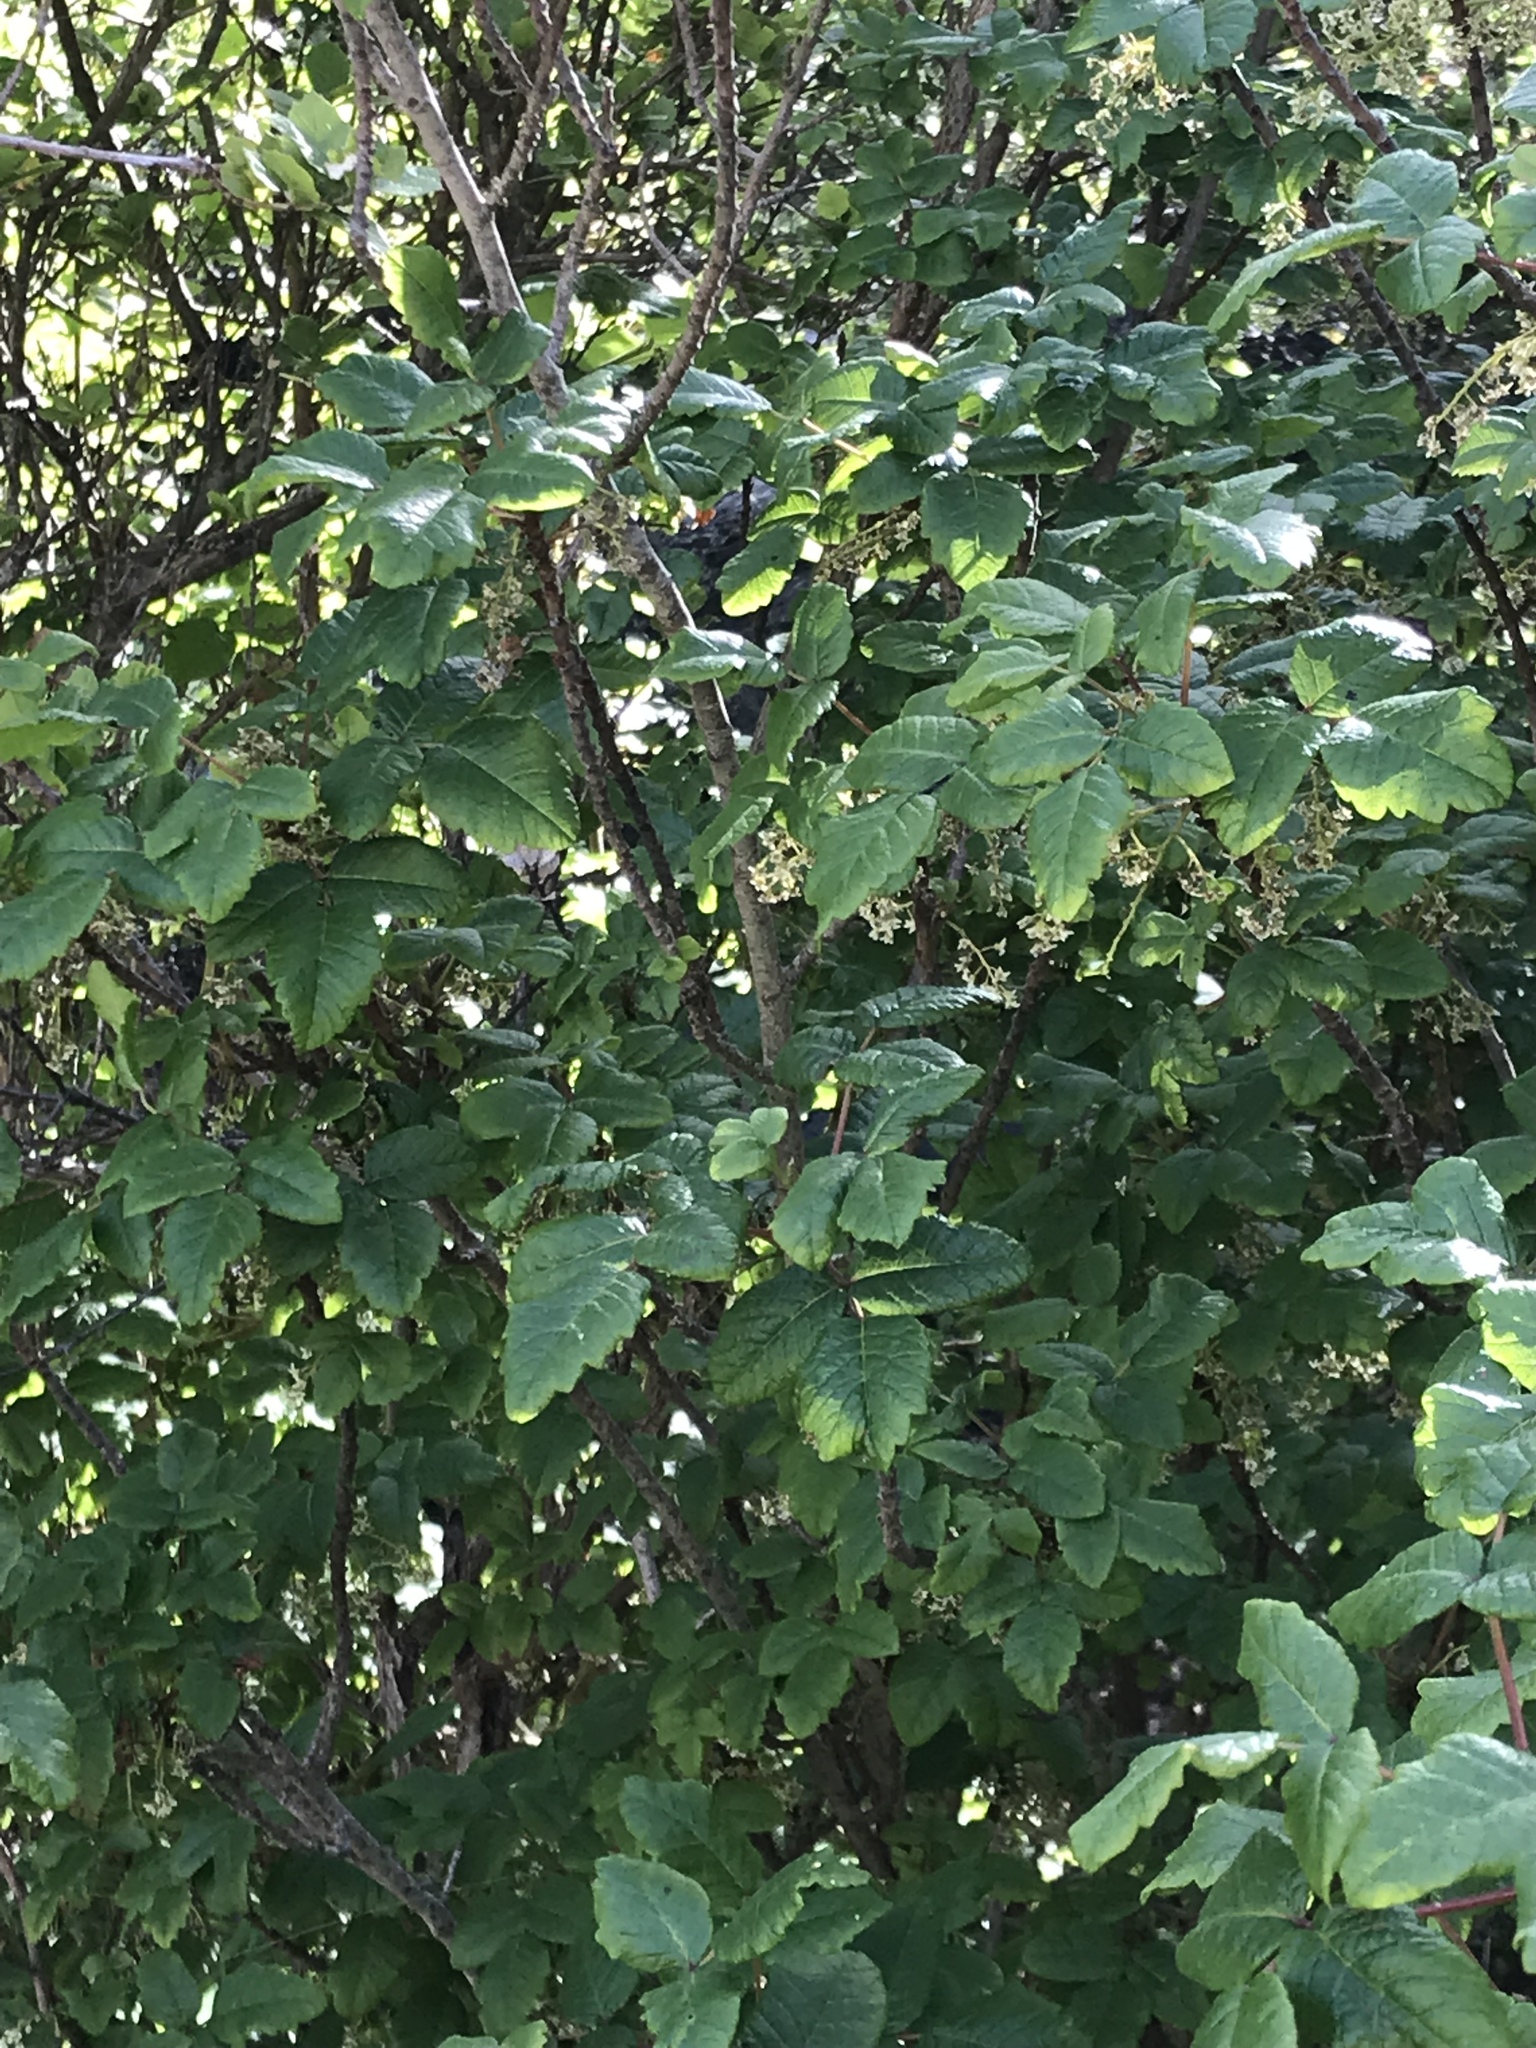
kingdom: Plantae
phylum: Tracheophyta
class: Magnoliopsida
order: Sapindales
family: Anacardiaceae
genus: Toxicodendron
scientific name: Toxicodendron diversilobum
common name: Pacific poison-oak
